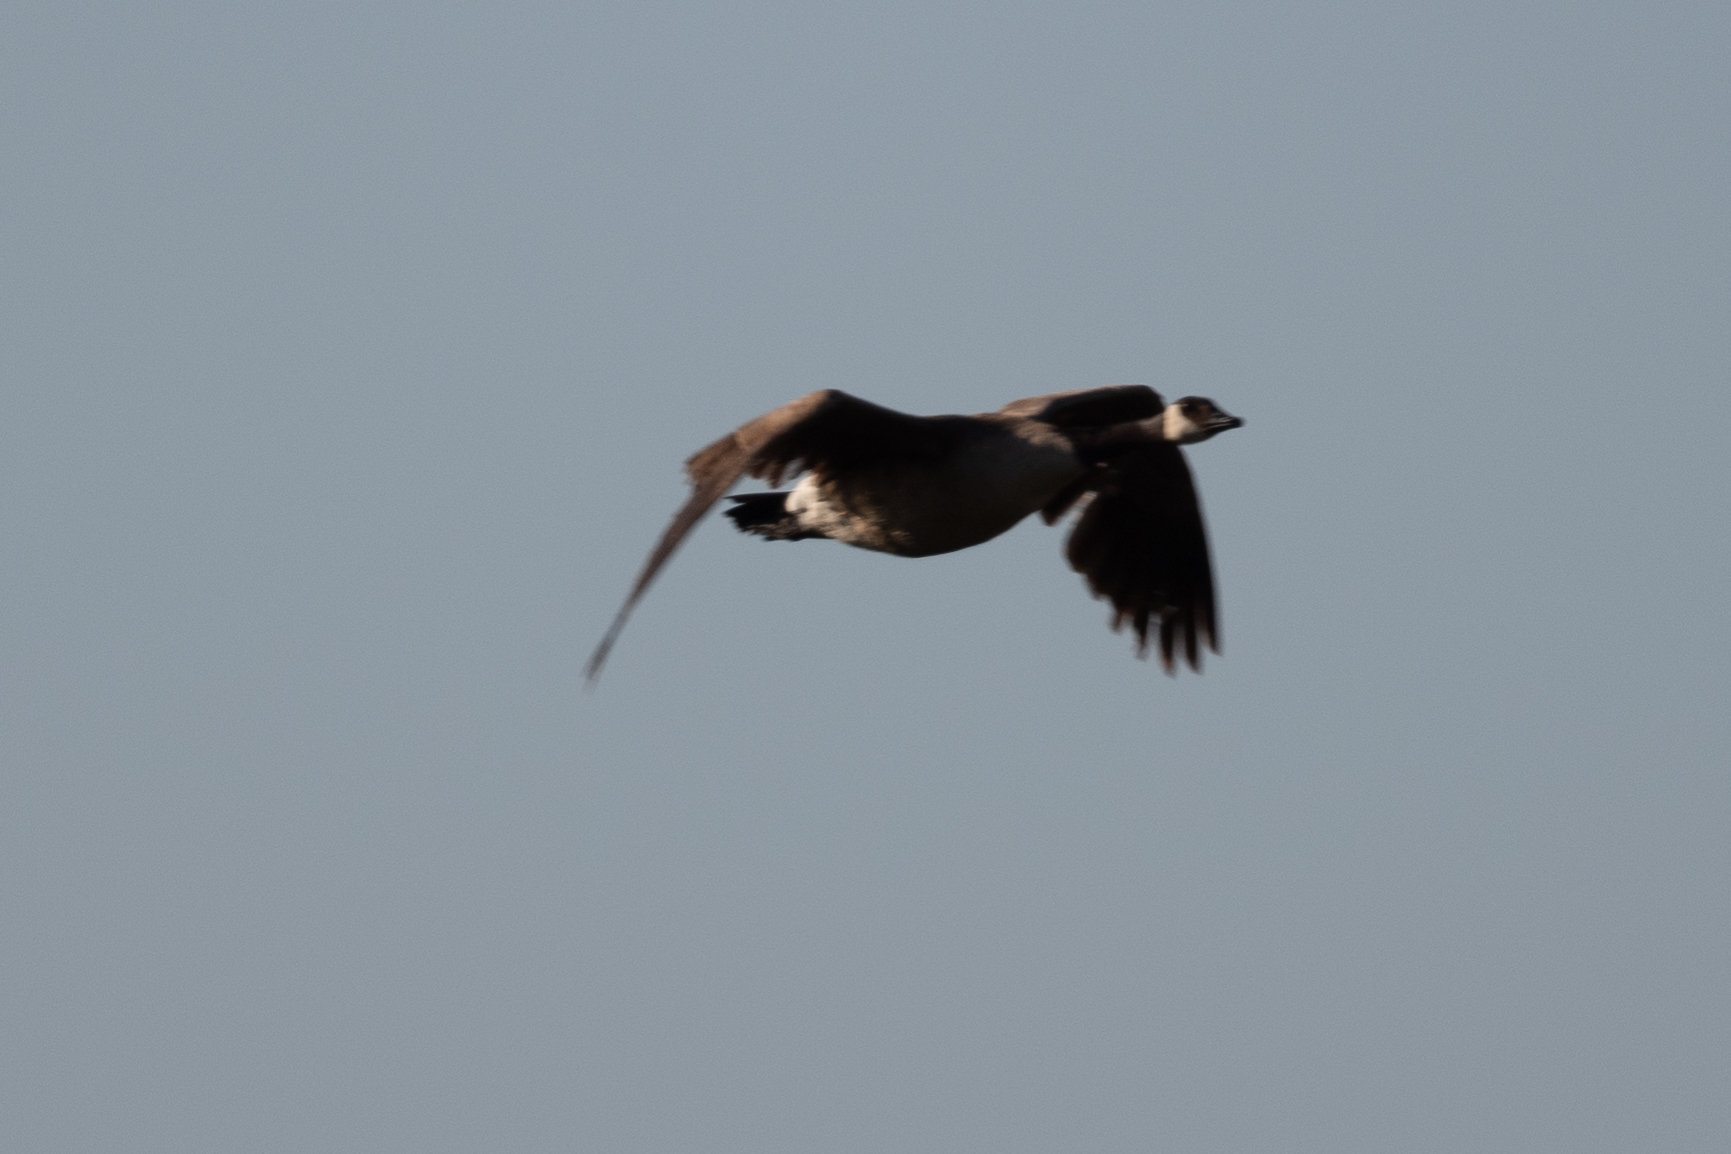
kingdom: Animalia
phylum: Chordata
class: Aves
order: Anseriformes
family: Anatidae
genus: Branta
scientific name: Branta canadensis
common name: Canada goose
